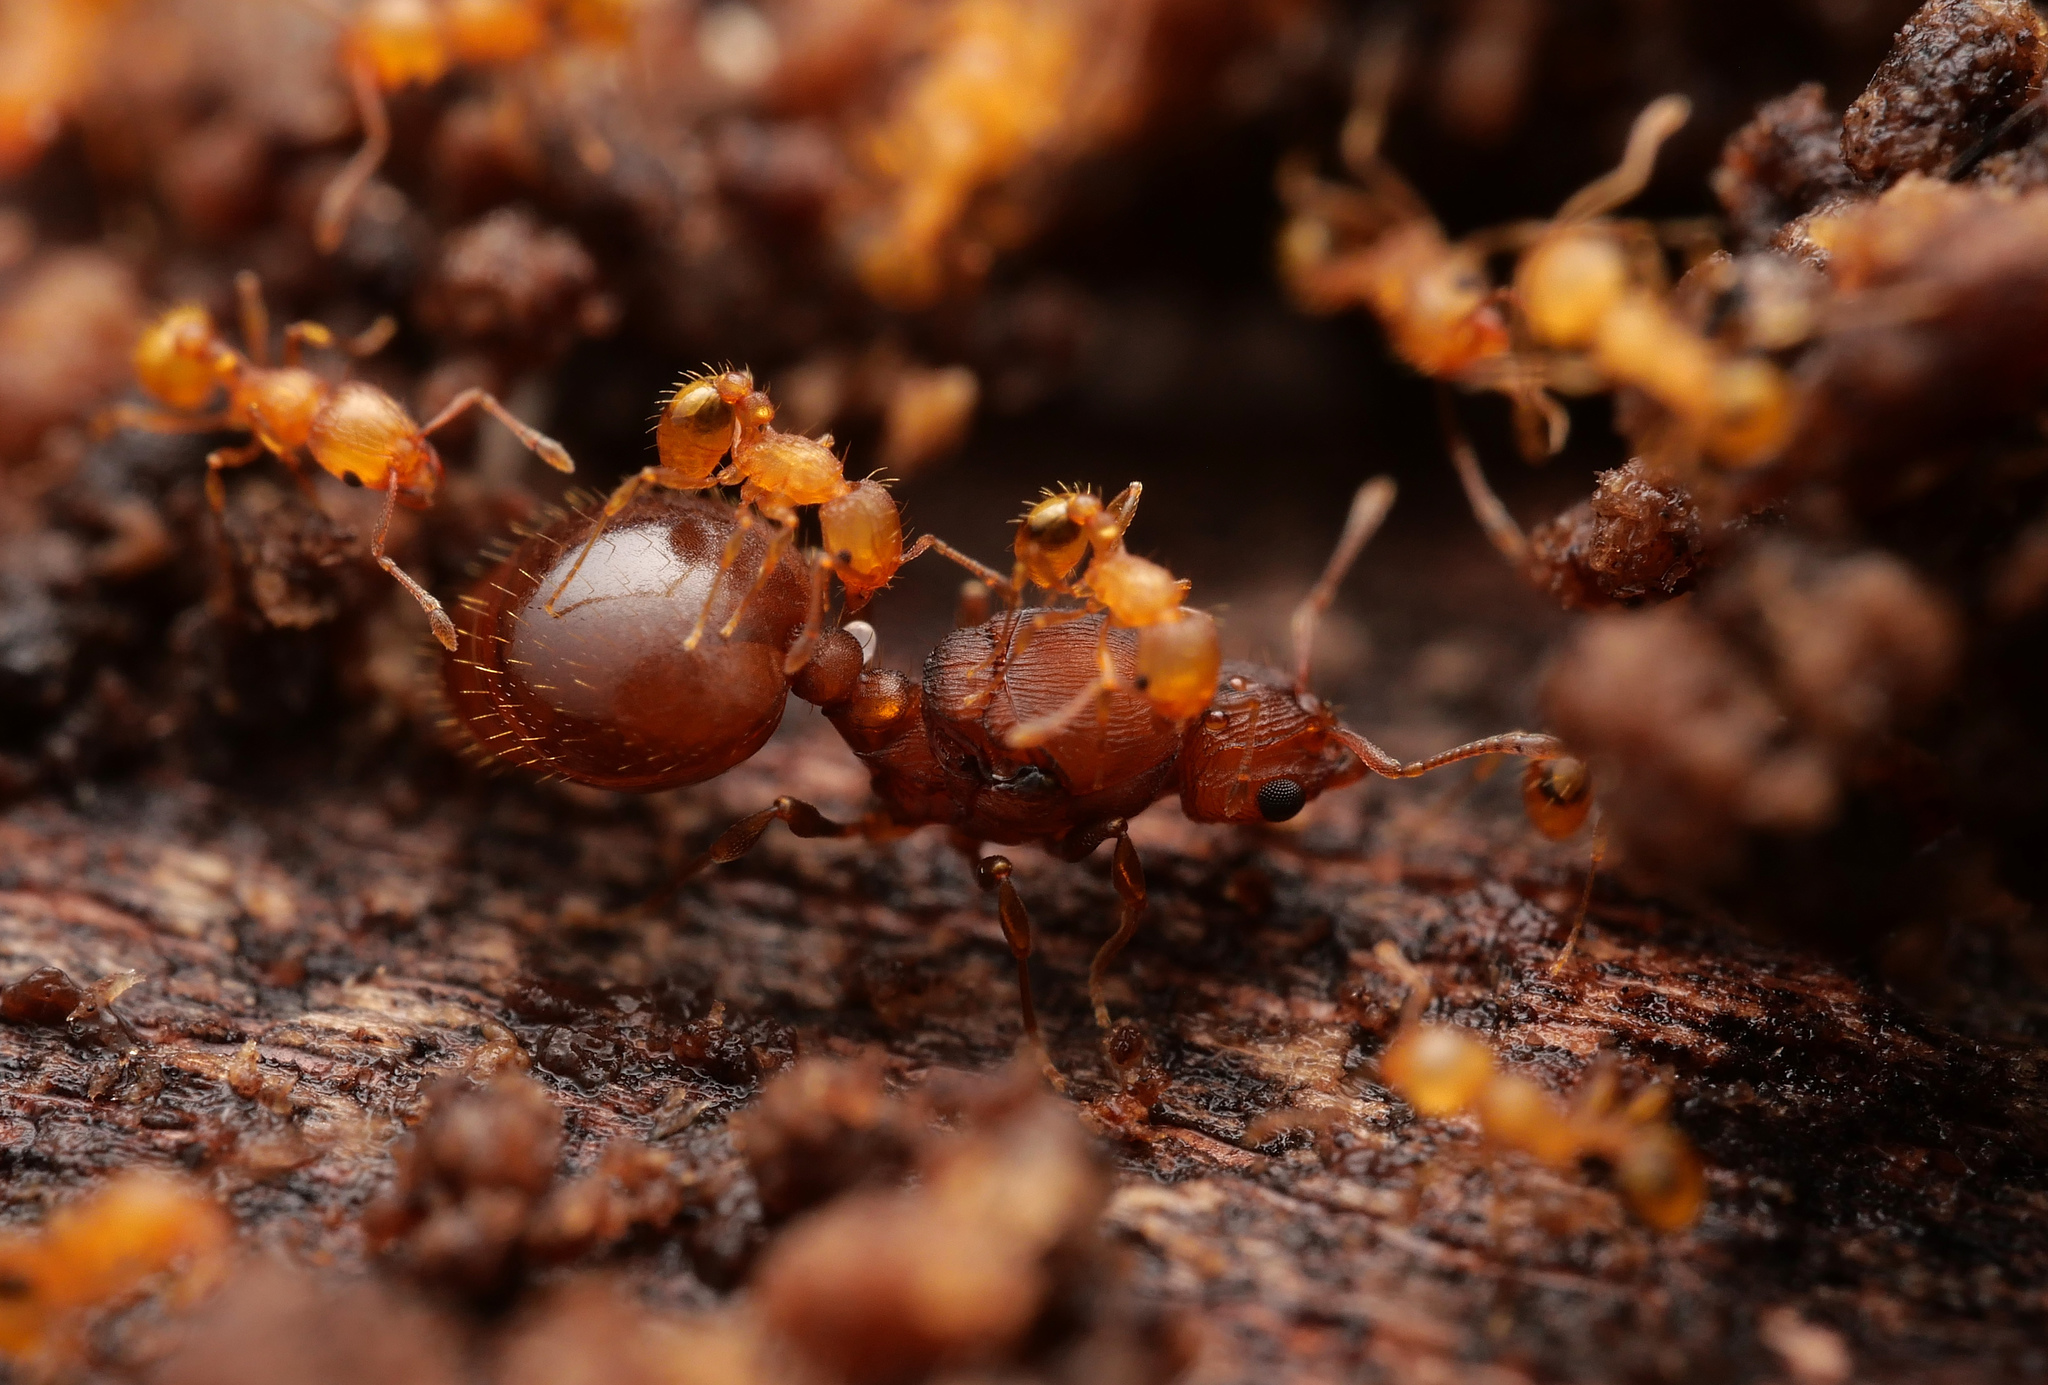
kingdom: Animalia
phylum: Arthropoda
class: Insecta
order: Hymenoptera
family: Formicidae
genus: Wasmannia
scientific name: Wasmannia auropunctata
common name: Little fire ant
